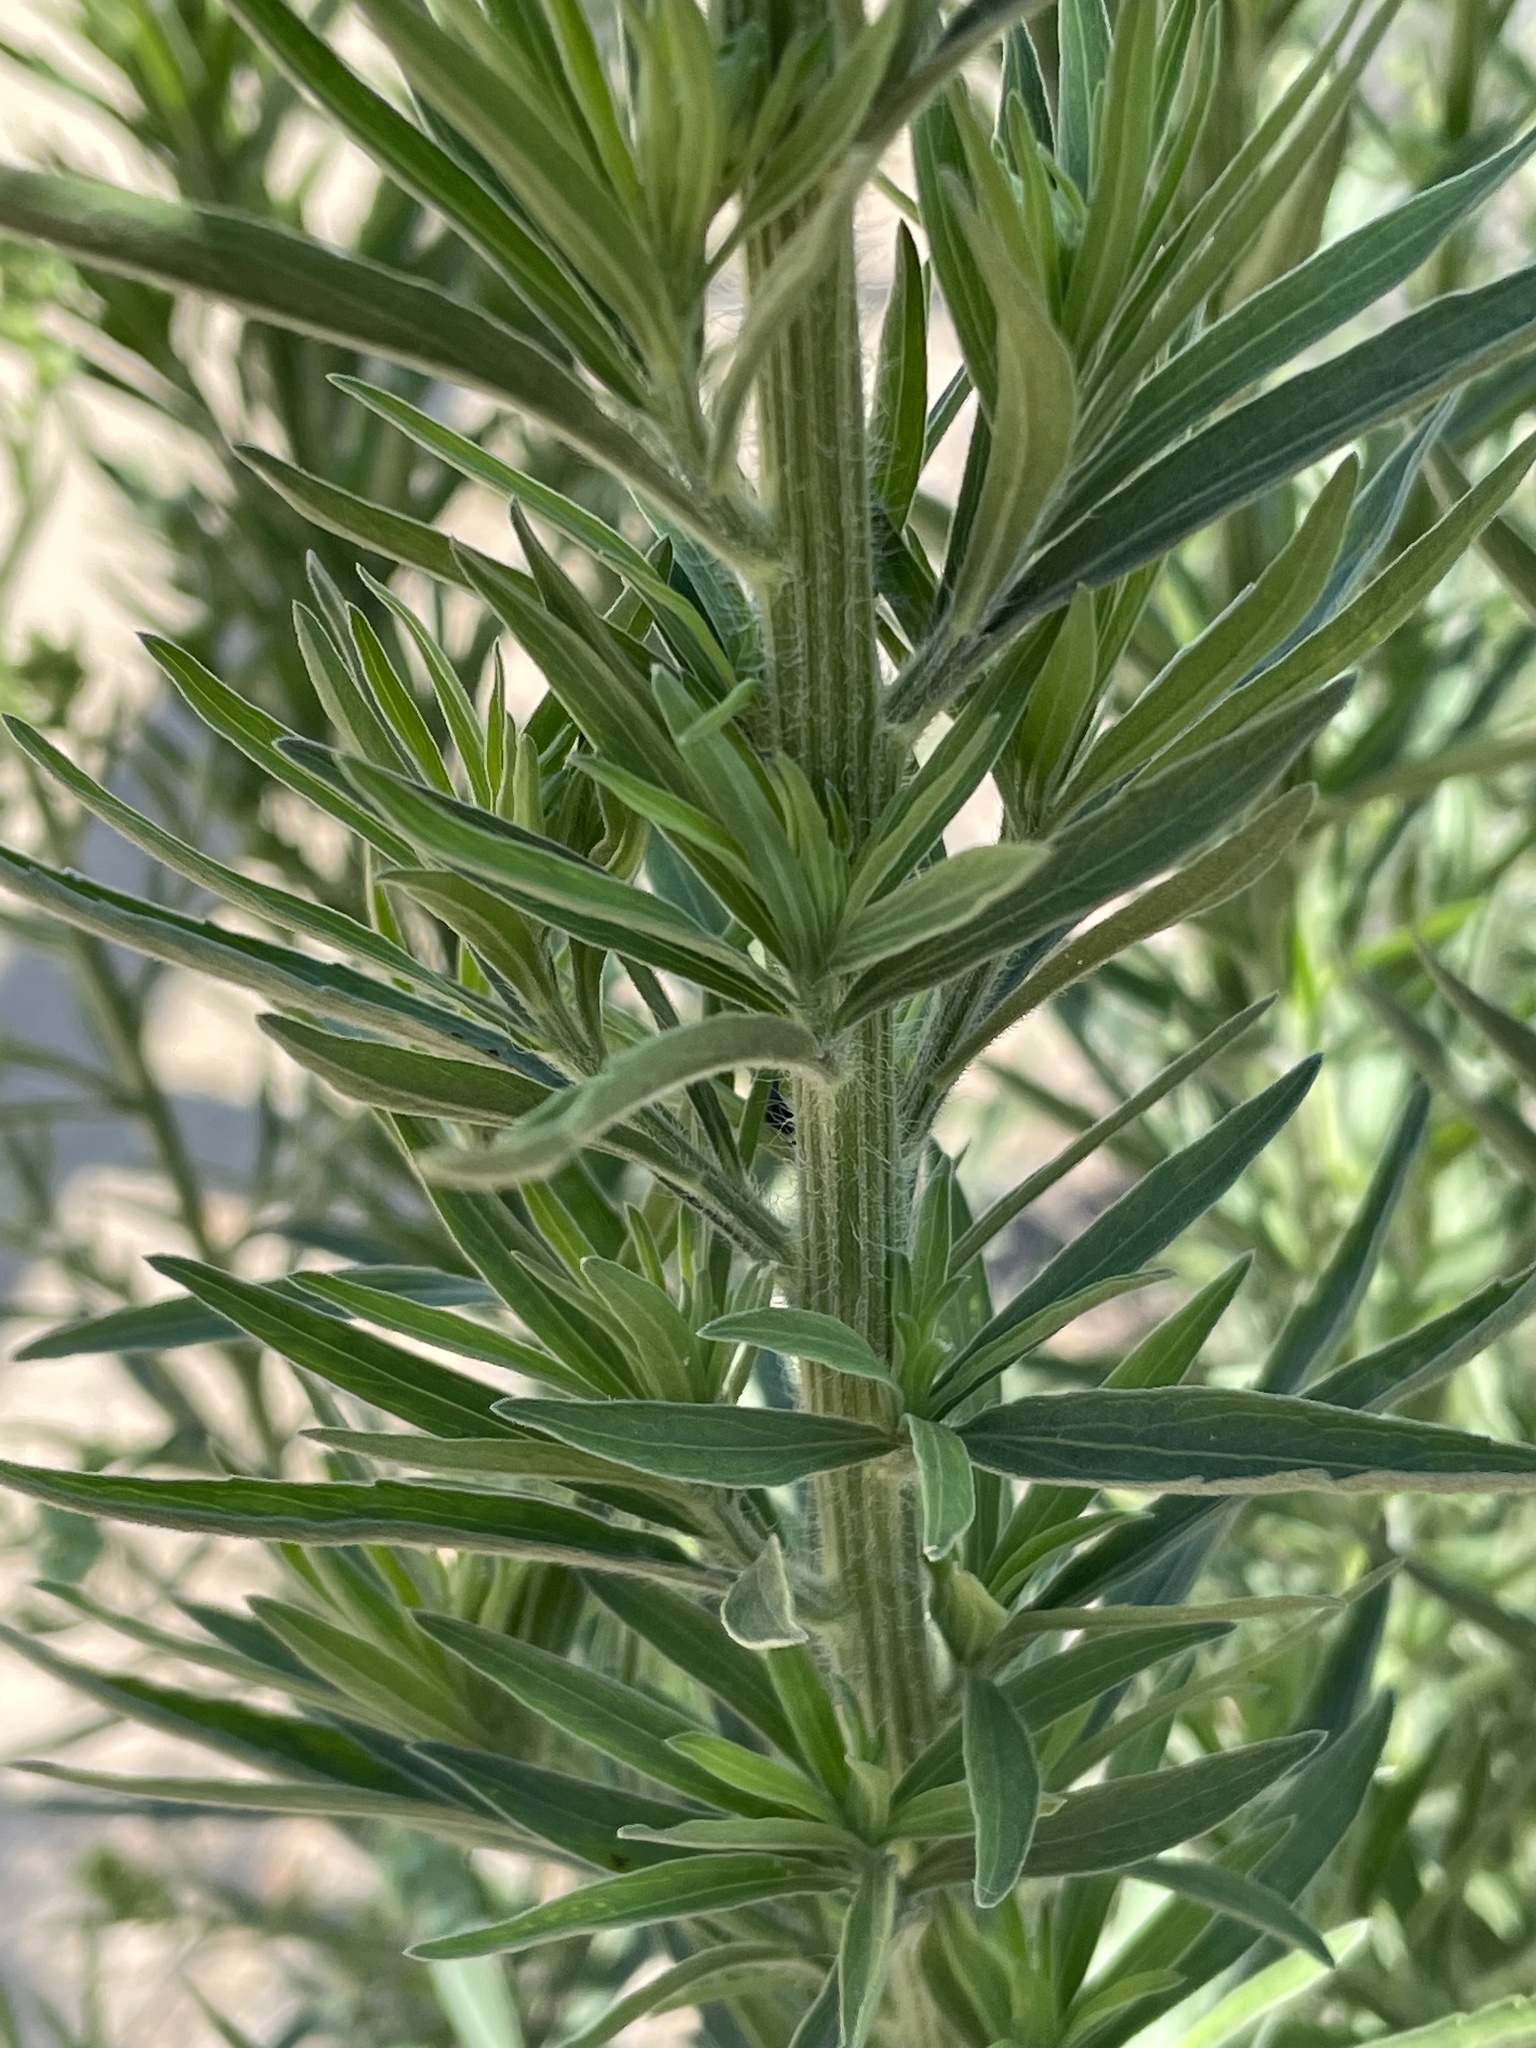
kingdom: Plantae
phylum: Tracheophyta
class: Magnoliopsida
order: Asterales
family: Asteraceae
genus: Erigeron
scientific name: Erigeron sumatrensis
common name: Daisy
